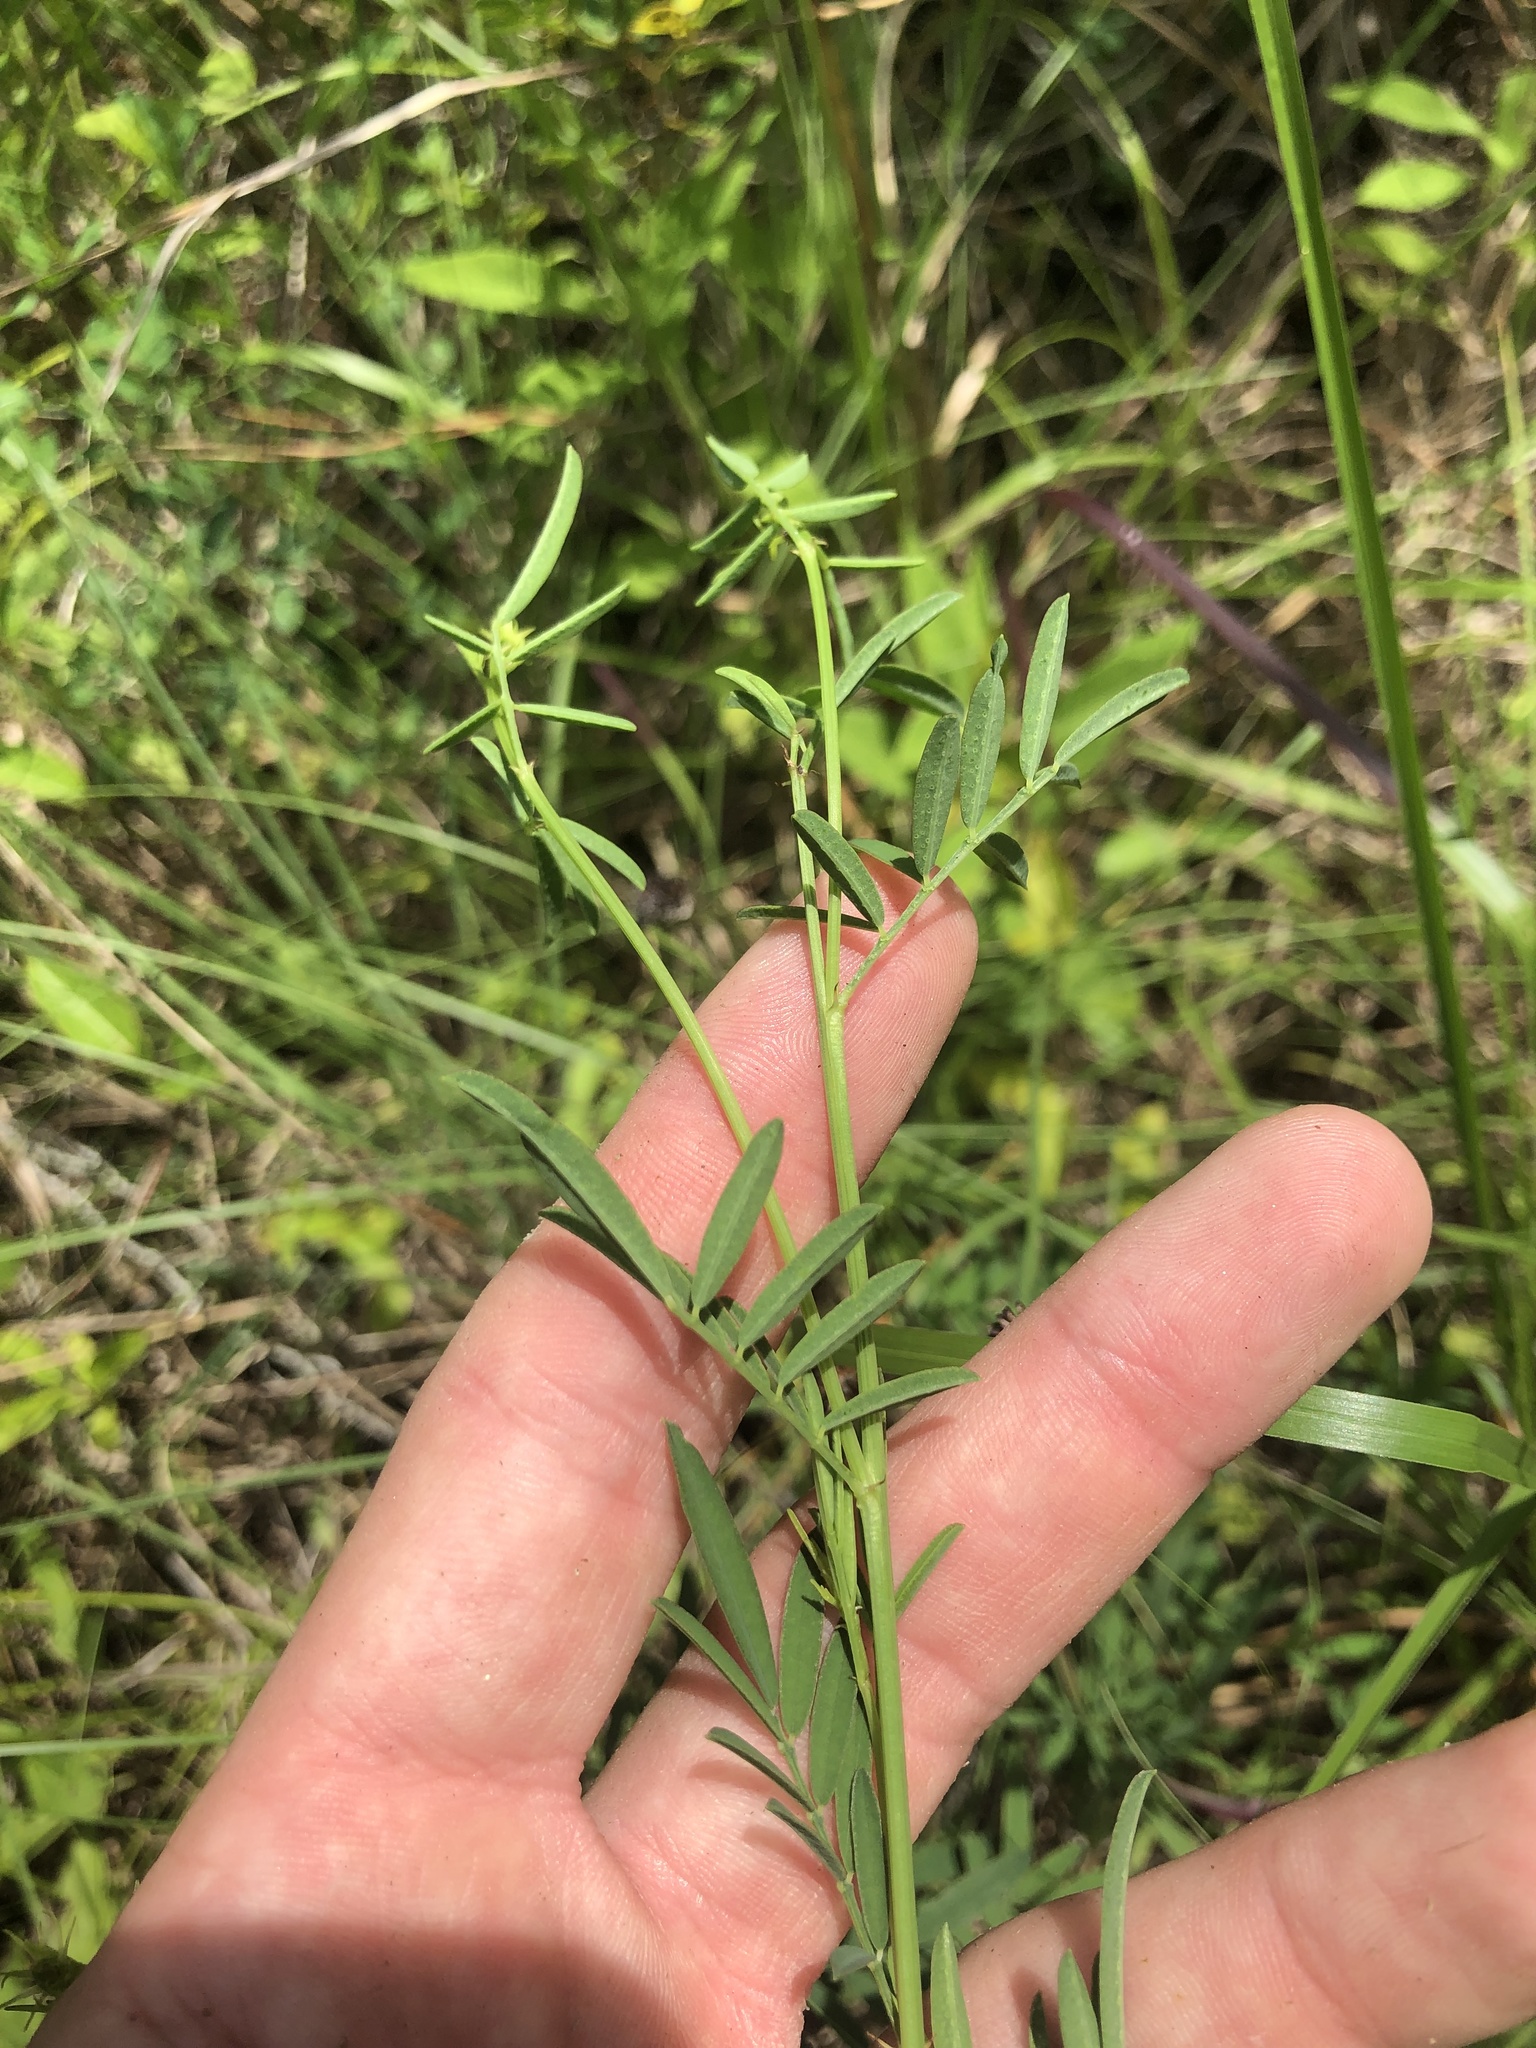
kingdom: Plantae
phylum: Tracheophyta
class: Magnoliopsida
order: Fabales
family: Fabaceae
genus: Dalea
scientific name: Dalea candida
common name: White prairie-clover
